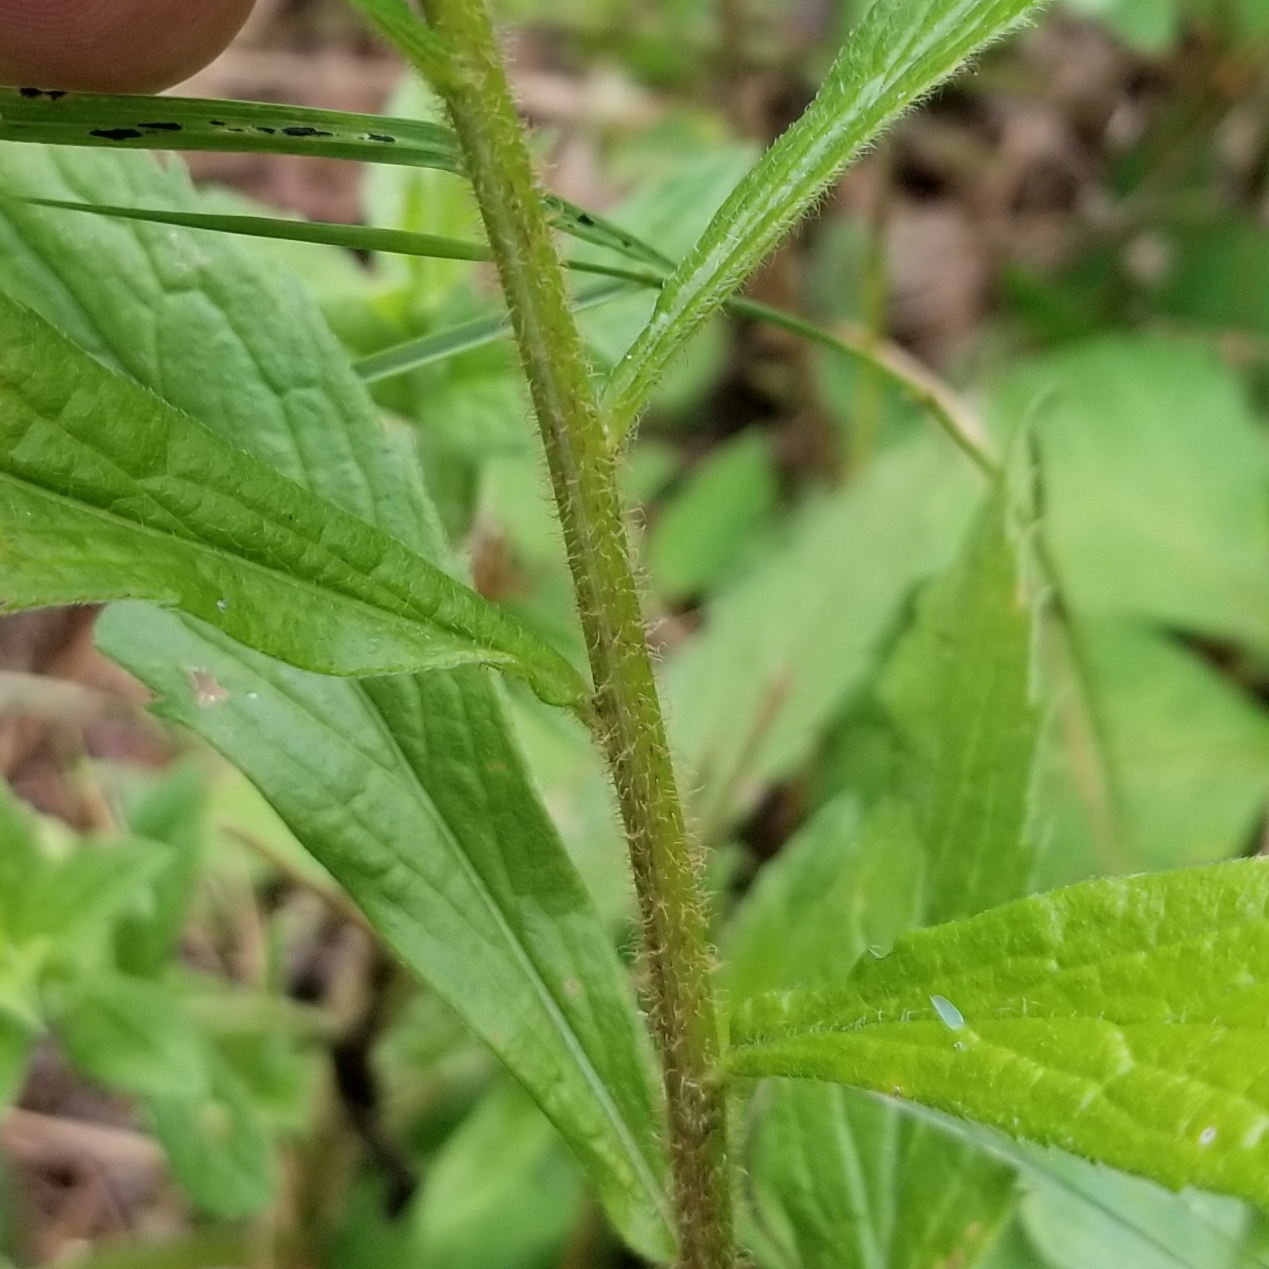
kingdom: Plantae
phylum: Tracheophyta
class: Magnoliopsida
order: Asterales
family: Asteraceae
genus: Solidago
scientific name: Solidago rugosa
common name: Rough-stemmed goldenrod
